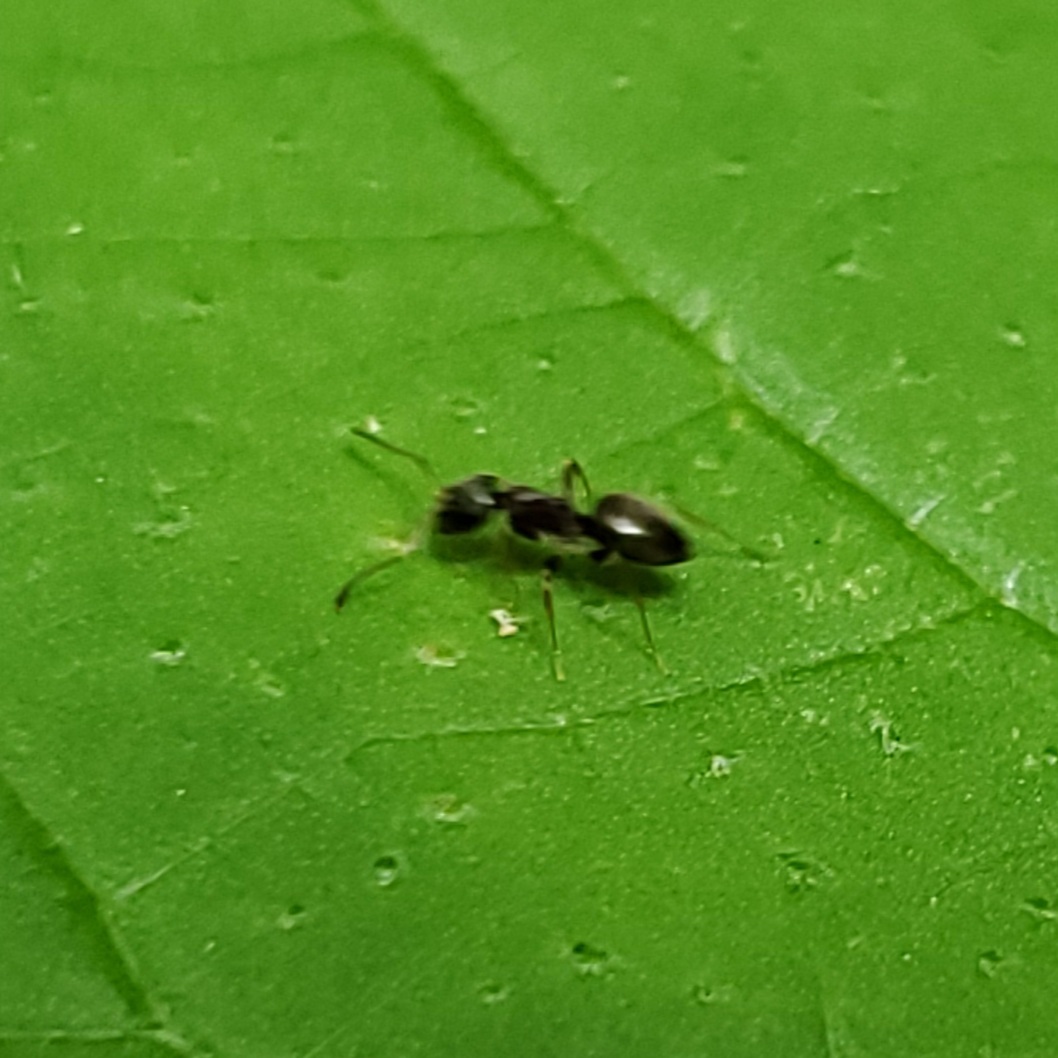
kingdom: Animalia
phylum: Arthropoda
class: Insecta
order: Hymenoptera
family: Formicidae
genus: Tapinoma
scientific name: Tapinoma sessile
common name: Odorous house ant
